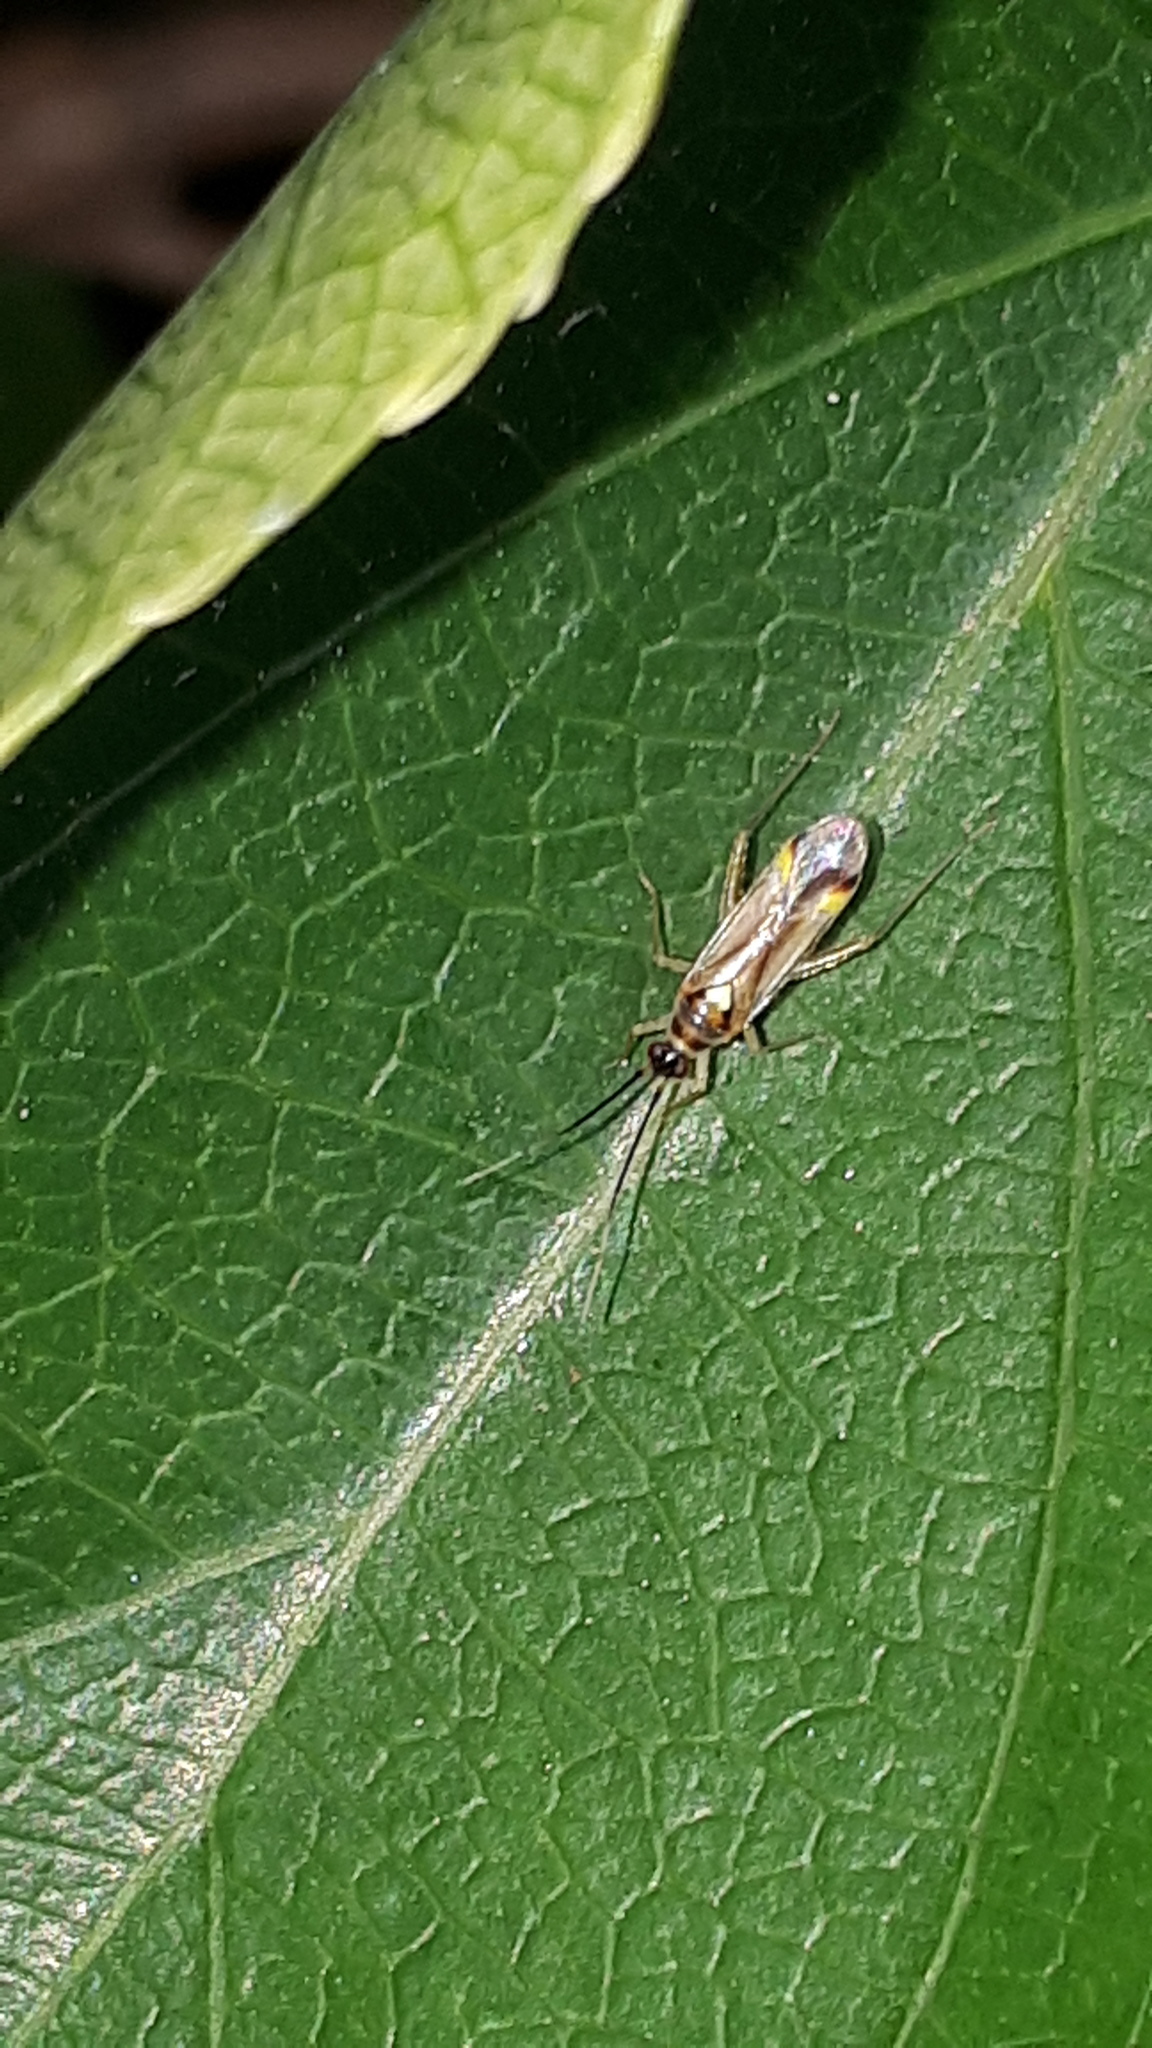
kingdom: Animalia
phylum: Arthropoda
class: Insecta
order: Hemiptera
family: Miridae
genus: Campyloneura
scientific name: Campyloneura virgula
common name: Predatory bug
